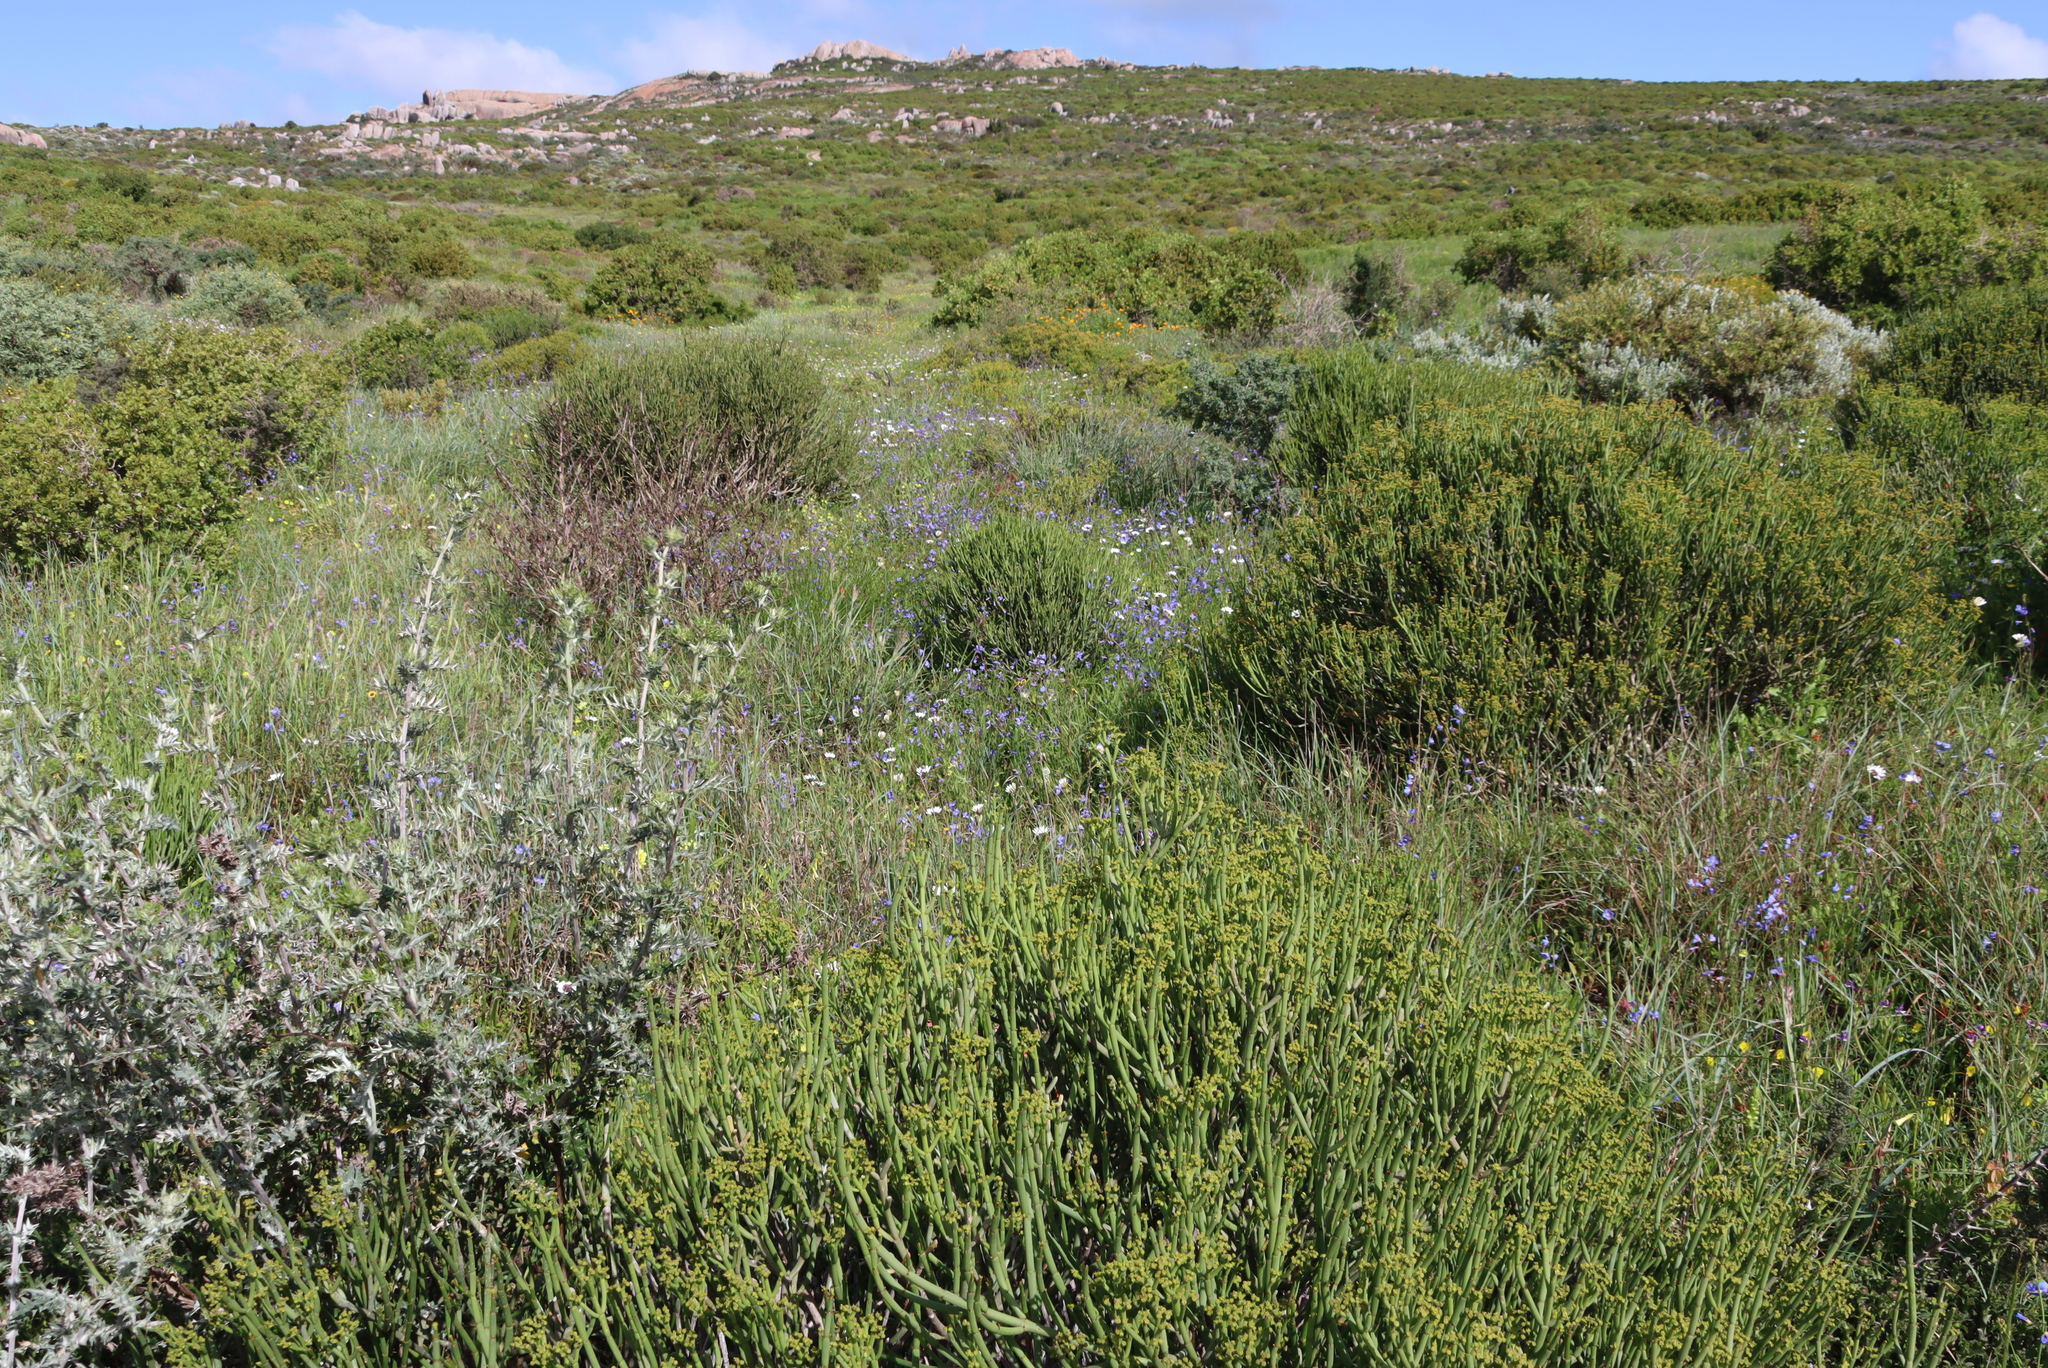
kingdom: Plantae
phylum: Tracheophyta
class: Magnoliopsida
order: Brassicales
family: Brassicaceae
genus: Heliophila
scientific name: Heliophila coronopifolia
